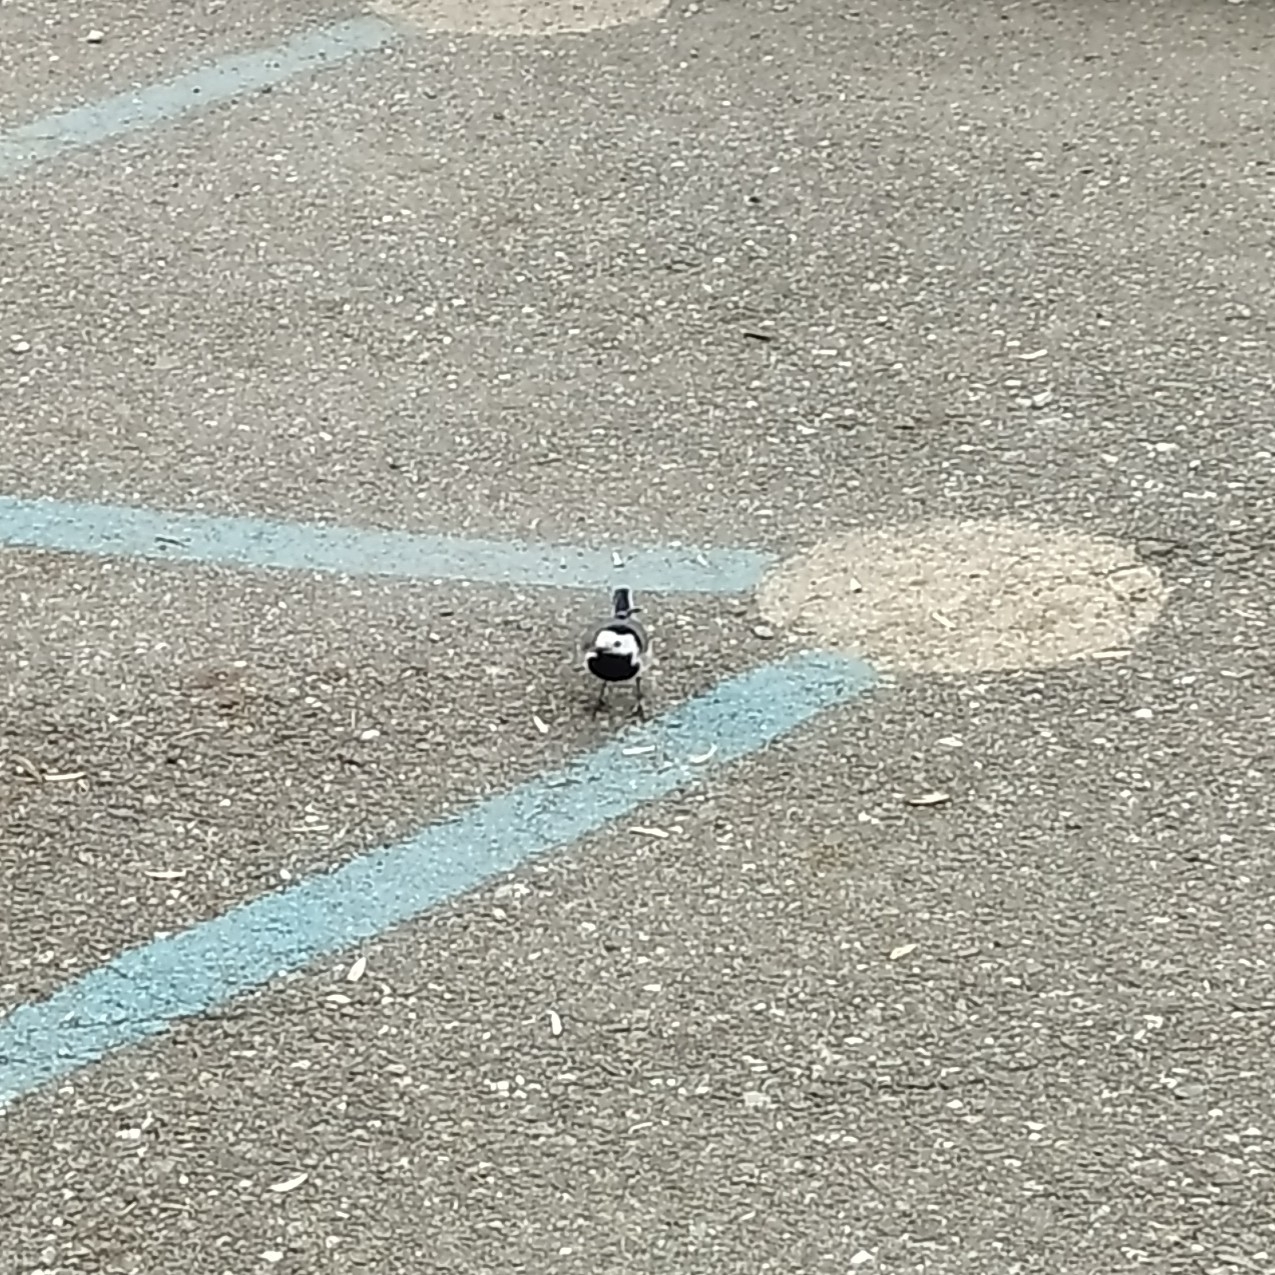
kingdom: Animalia
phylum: Chordata
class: Aves
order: Passeriformes
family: Motacillidae
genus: Motacilla
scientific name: Motacilla alba
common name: White wagtail
